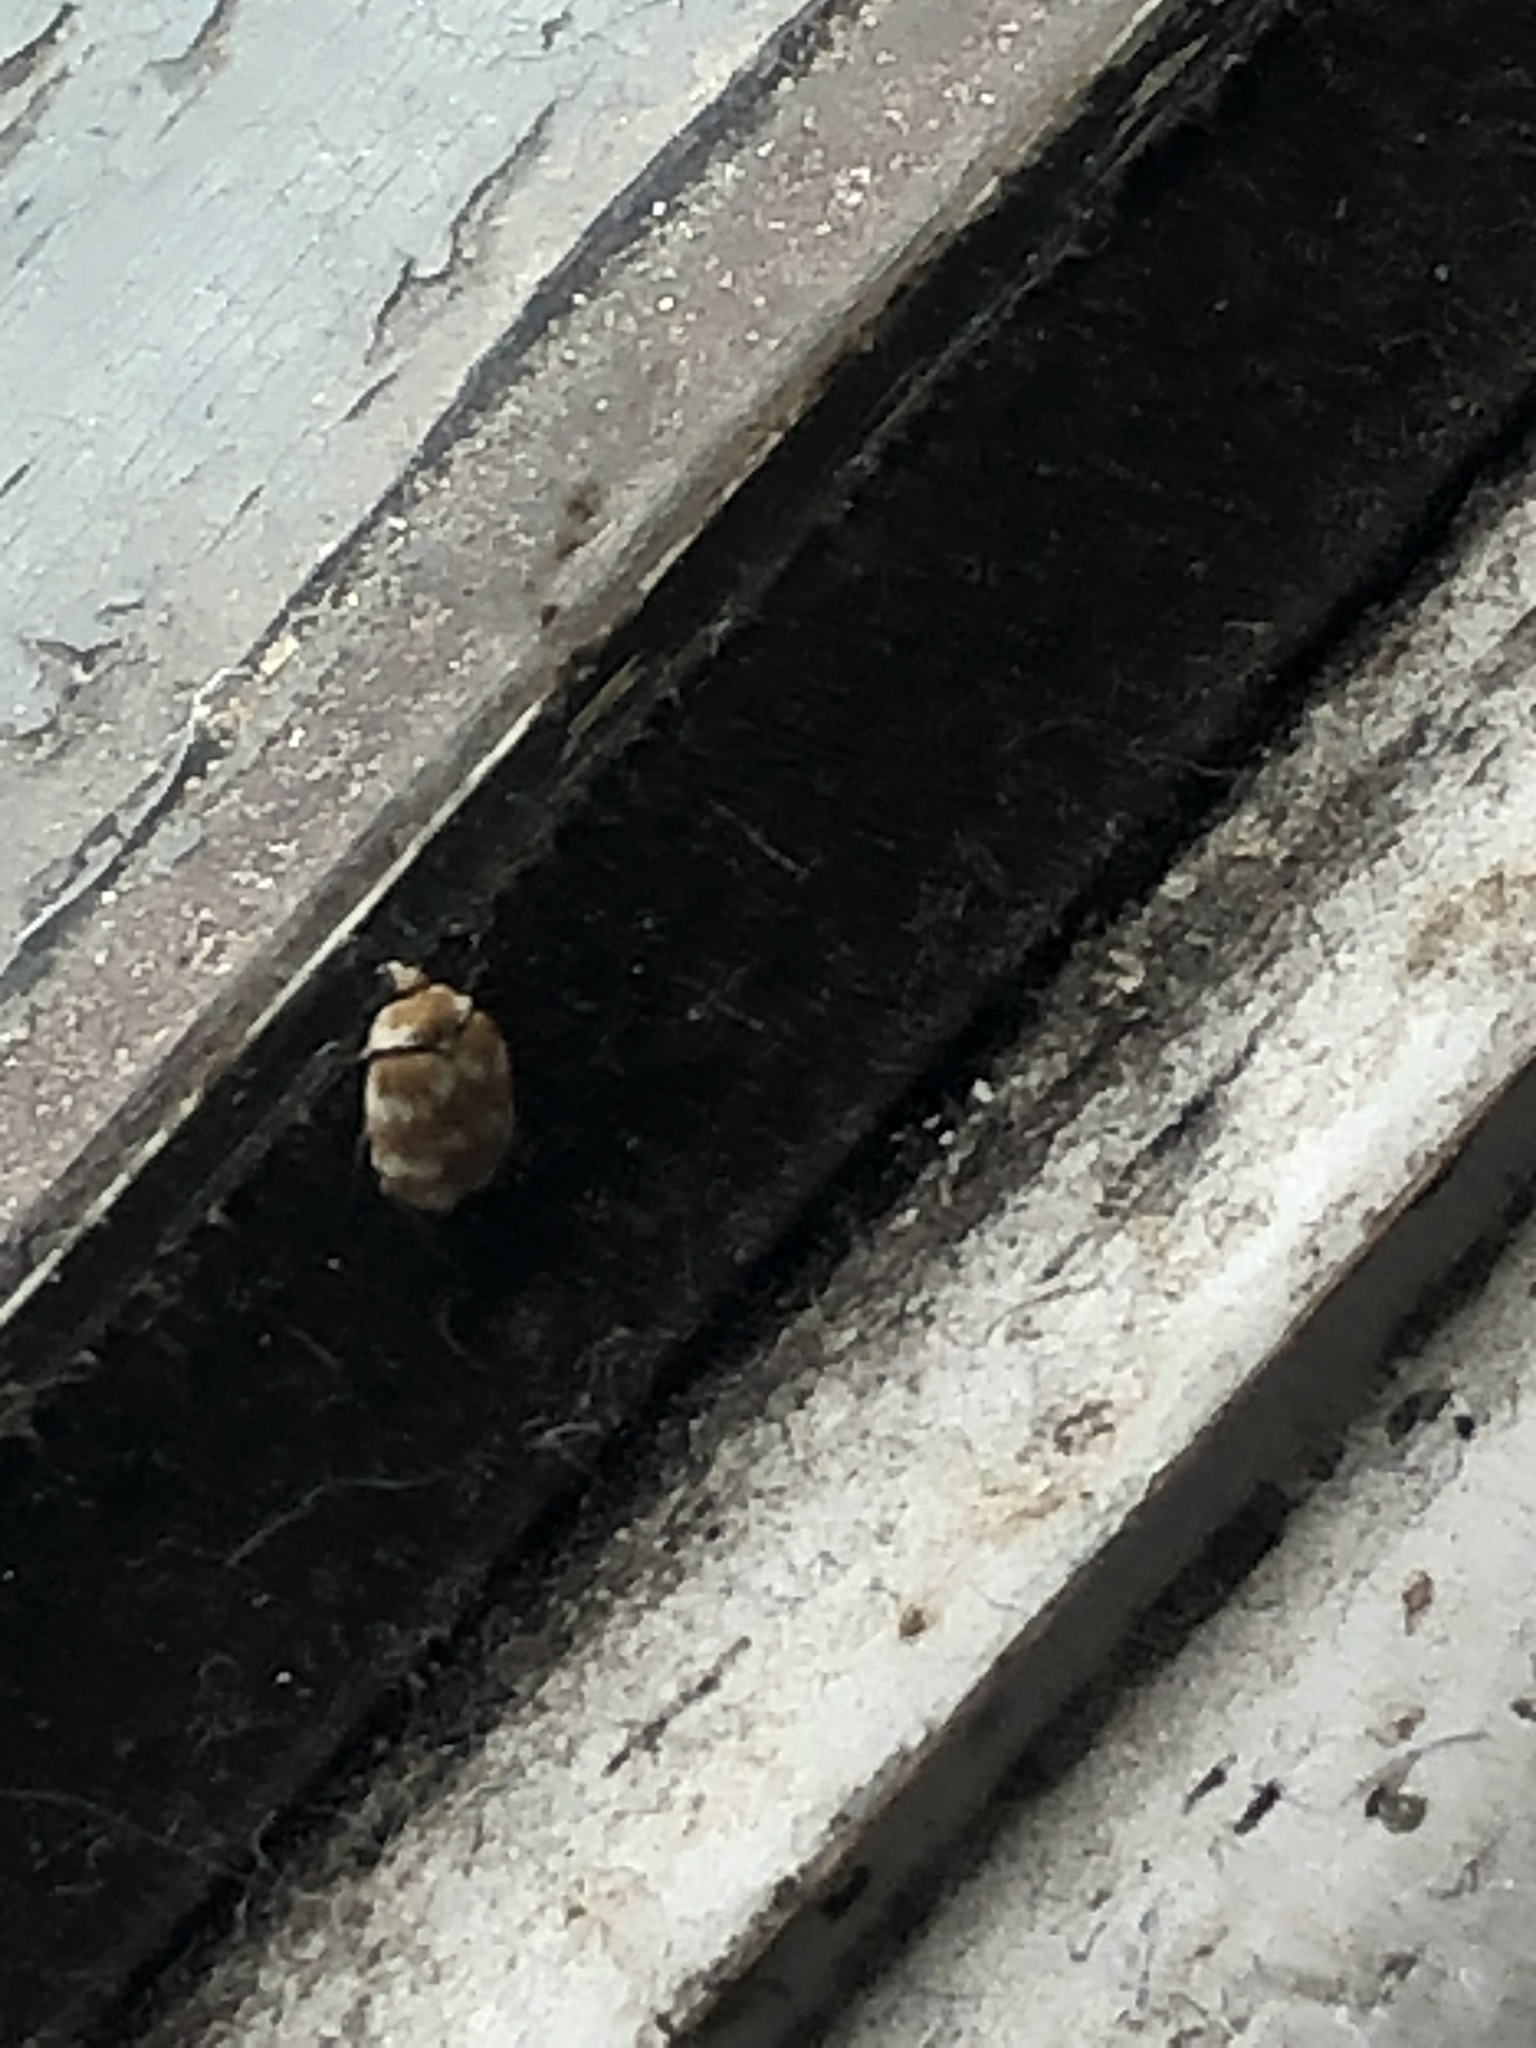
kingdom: Animalia
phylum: Arthropoda
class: Insecta
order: Coleoptera
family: Dermestidae
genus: Anthrenus
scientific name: Anthrenus verbasci
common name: Varied carpet beetle
